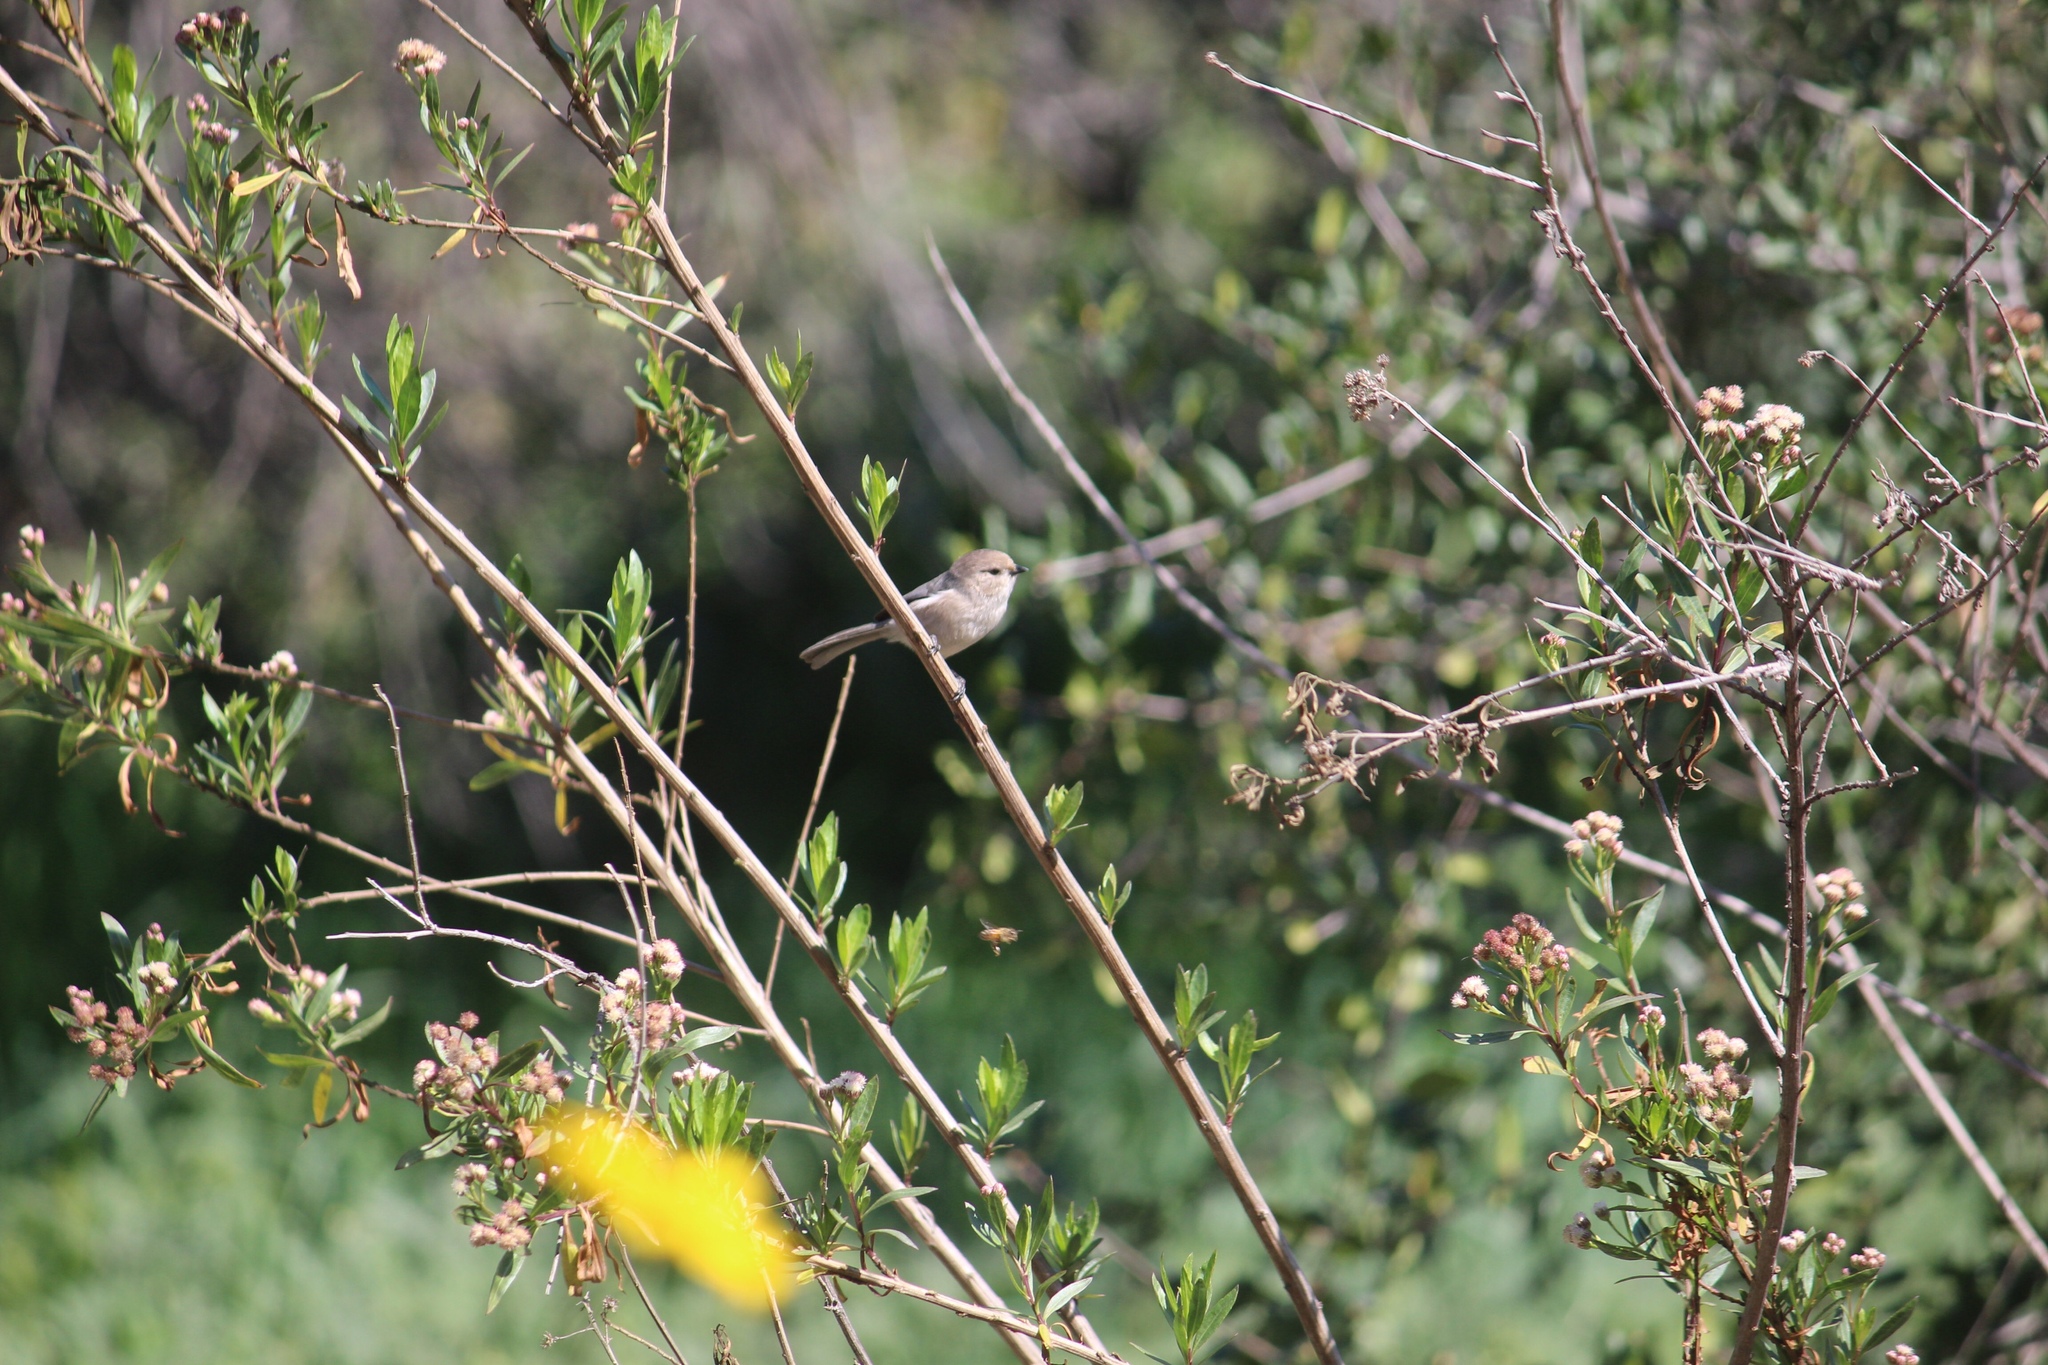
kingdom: Animalia
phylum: Chordata
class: Aves
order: Passeriformes
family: Aegithalidae
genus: Psaltriparus
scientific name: Psaltriparus minimus
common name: American bushtit
